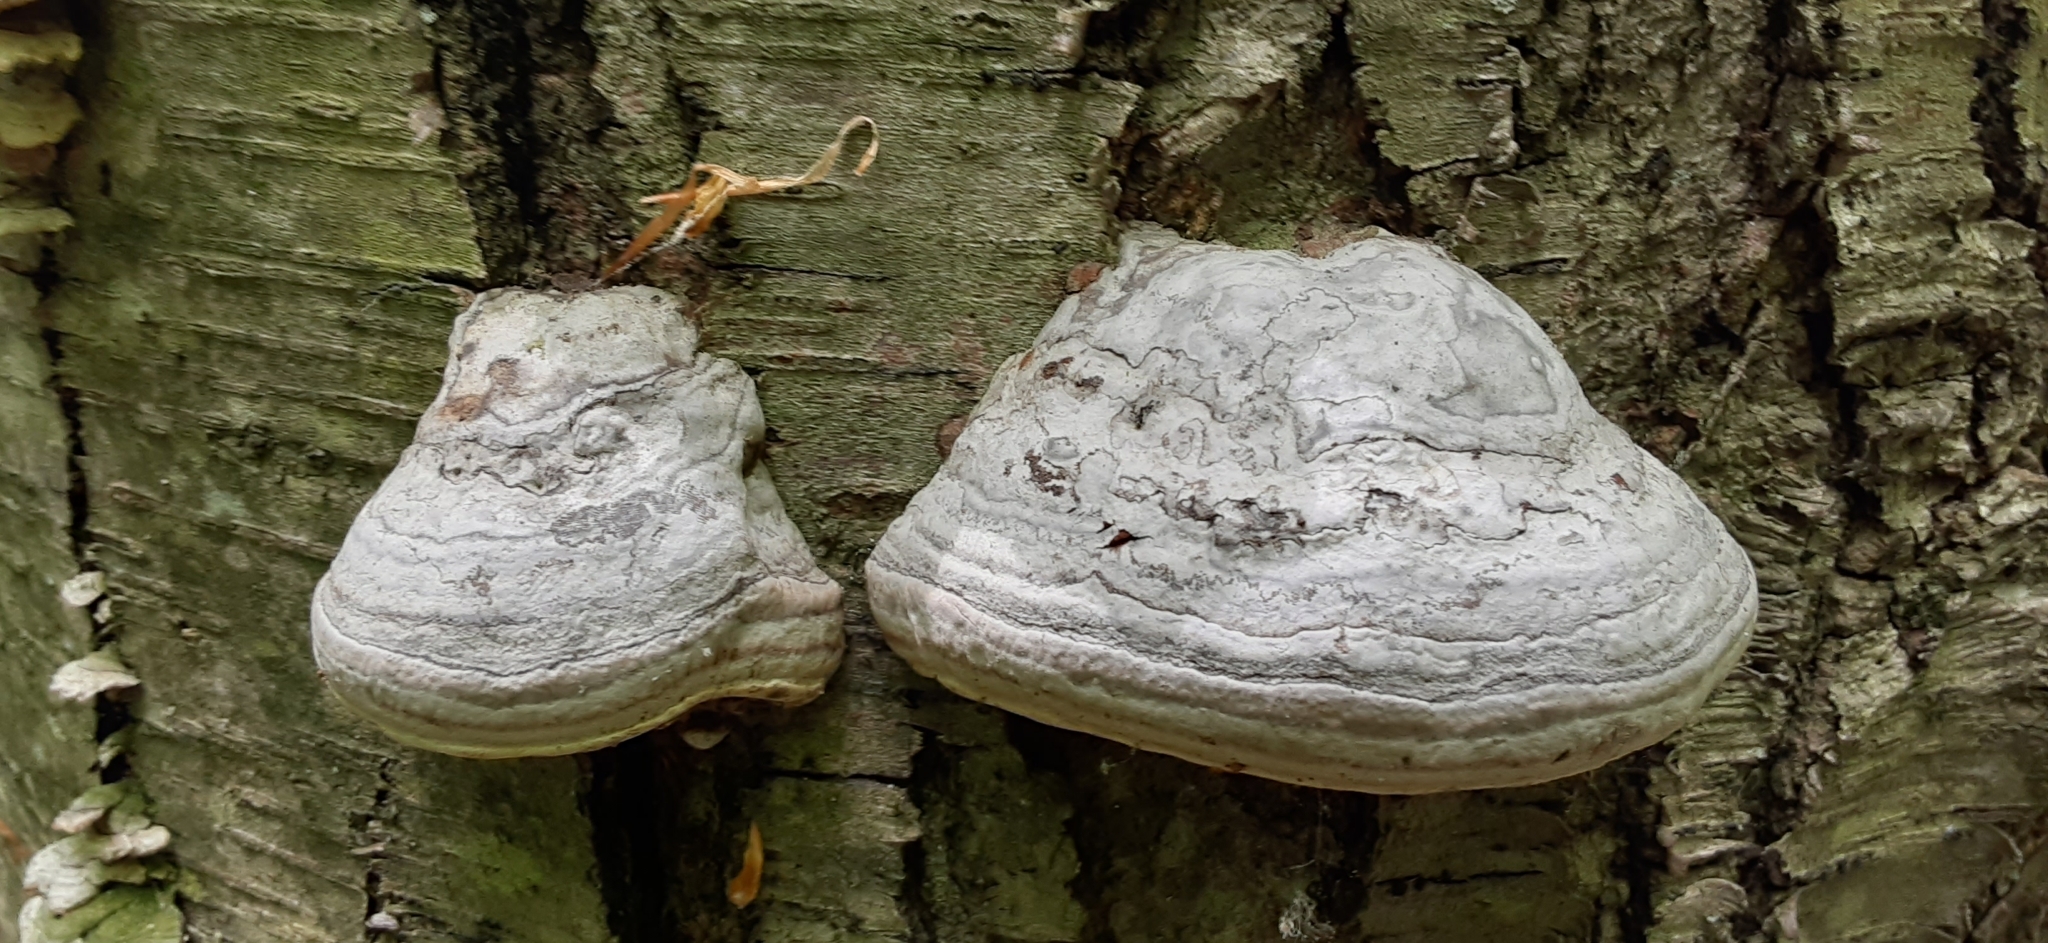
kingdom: Fungi
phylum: Basidiomycota
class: Agaricomycetes
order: Polyporales
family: Polyporaceae
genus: Fomes
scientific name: Fomes fomentarius
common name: Hoof fungus
